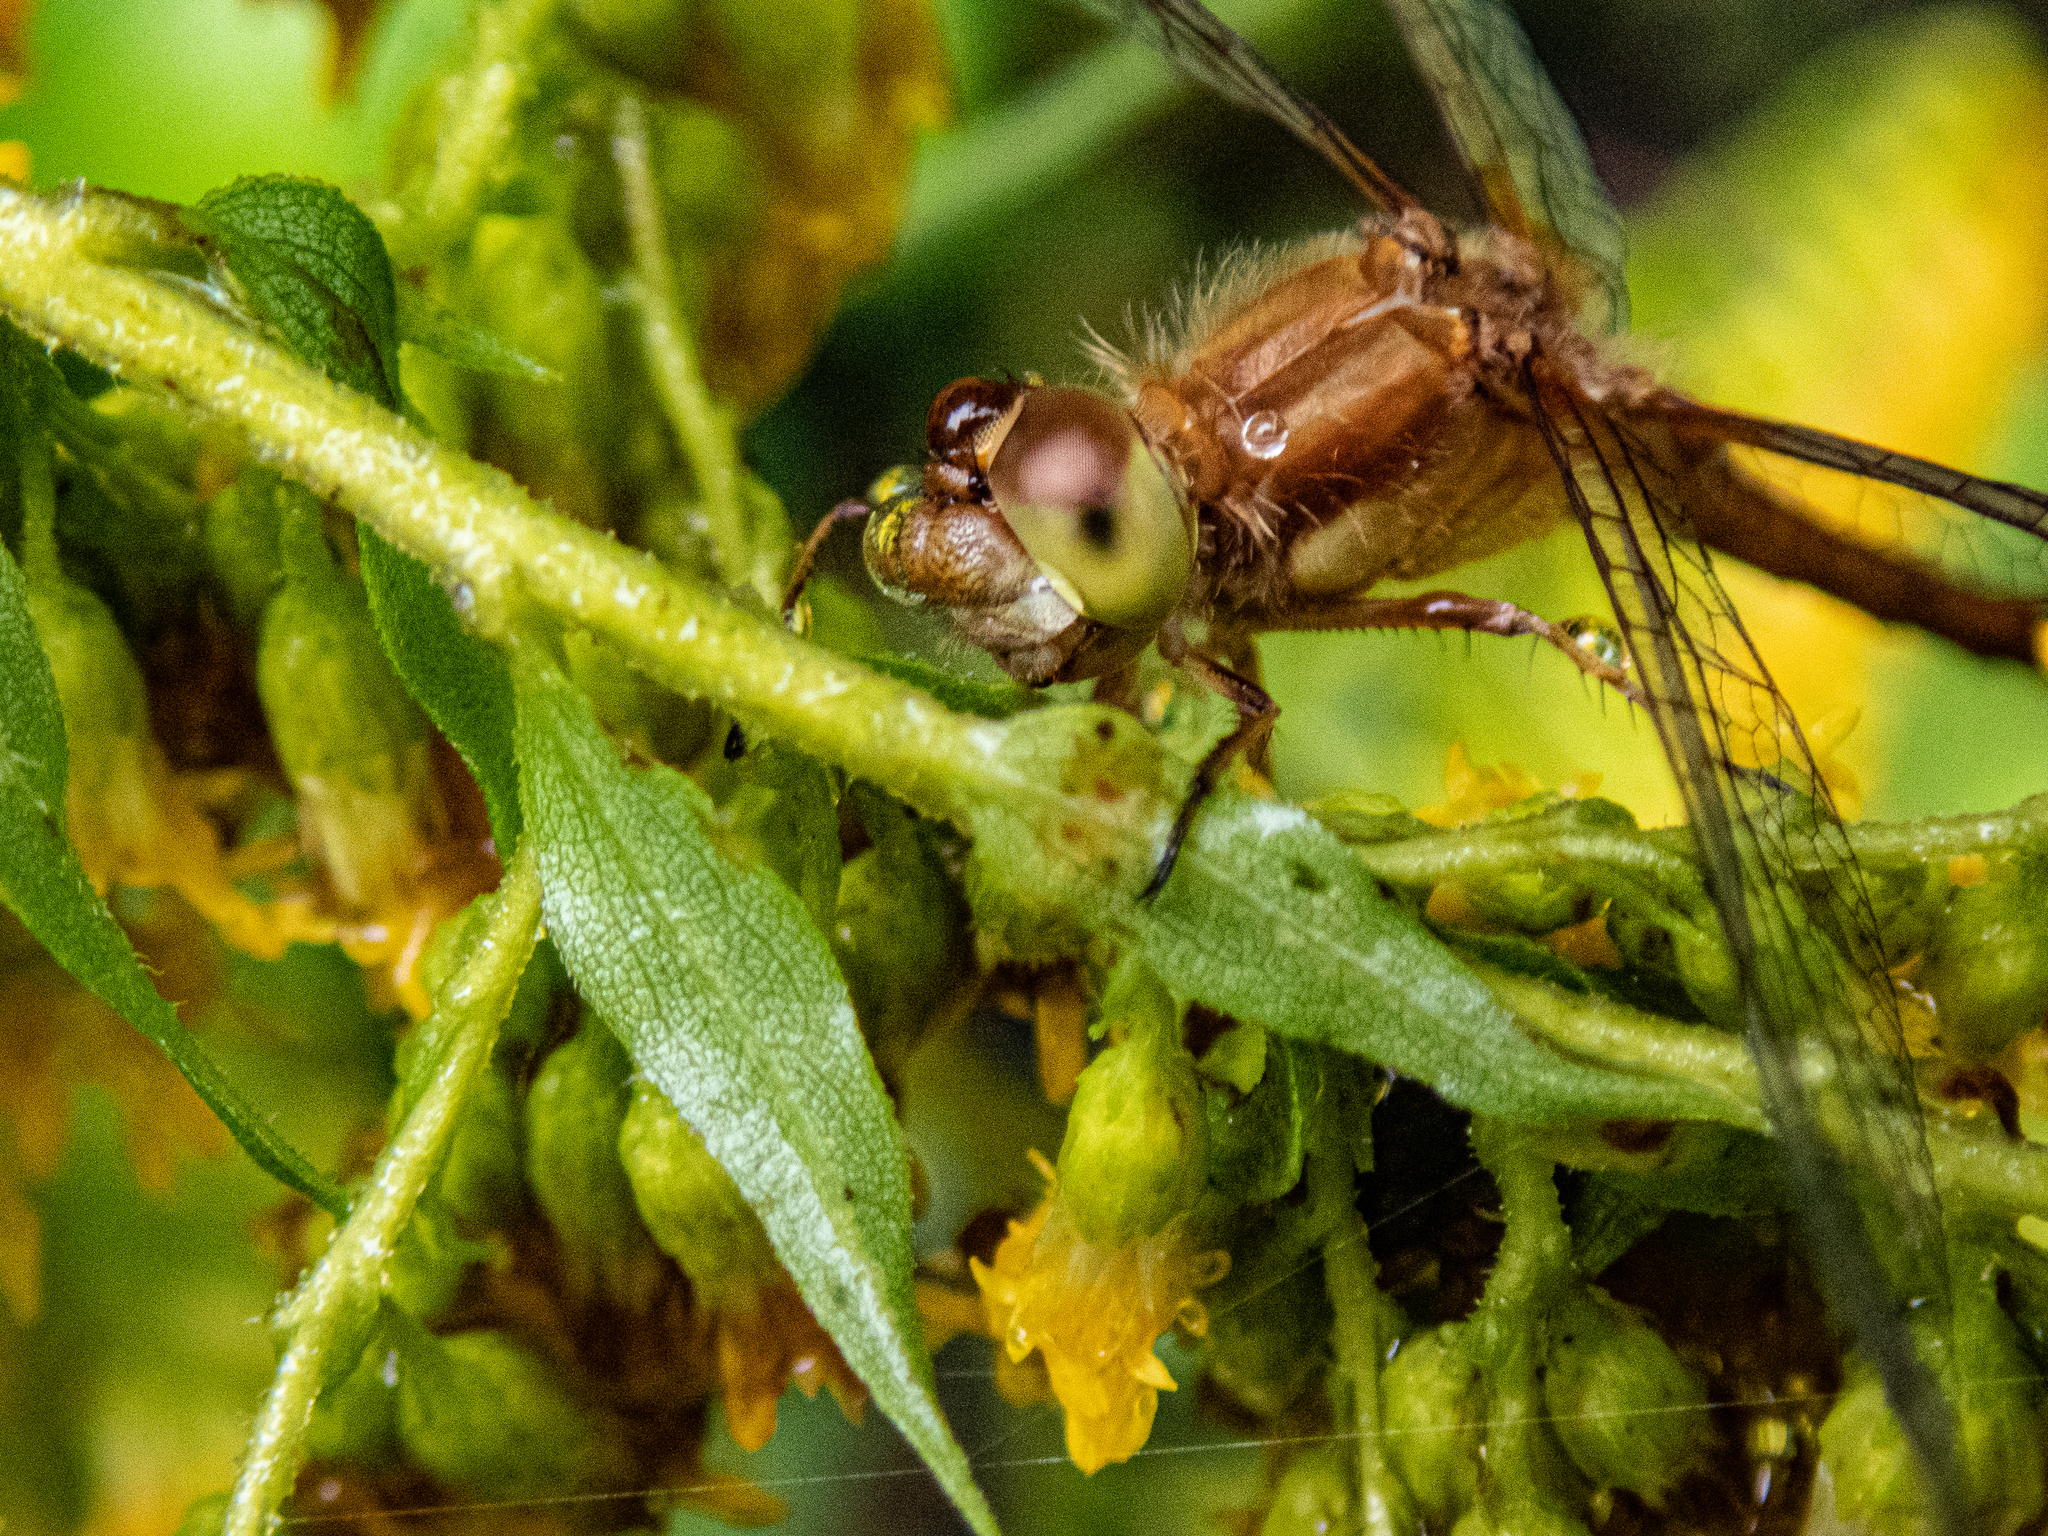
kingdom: Animalia
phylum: Arthropoda
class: Insecta
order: Odonata
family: Libellulidae
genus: Sympetrum
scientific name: Sympetrum vicinum
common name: Autumn meadowhawk
